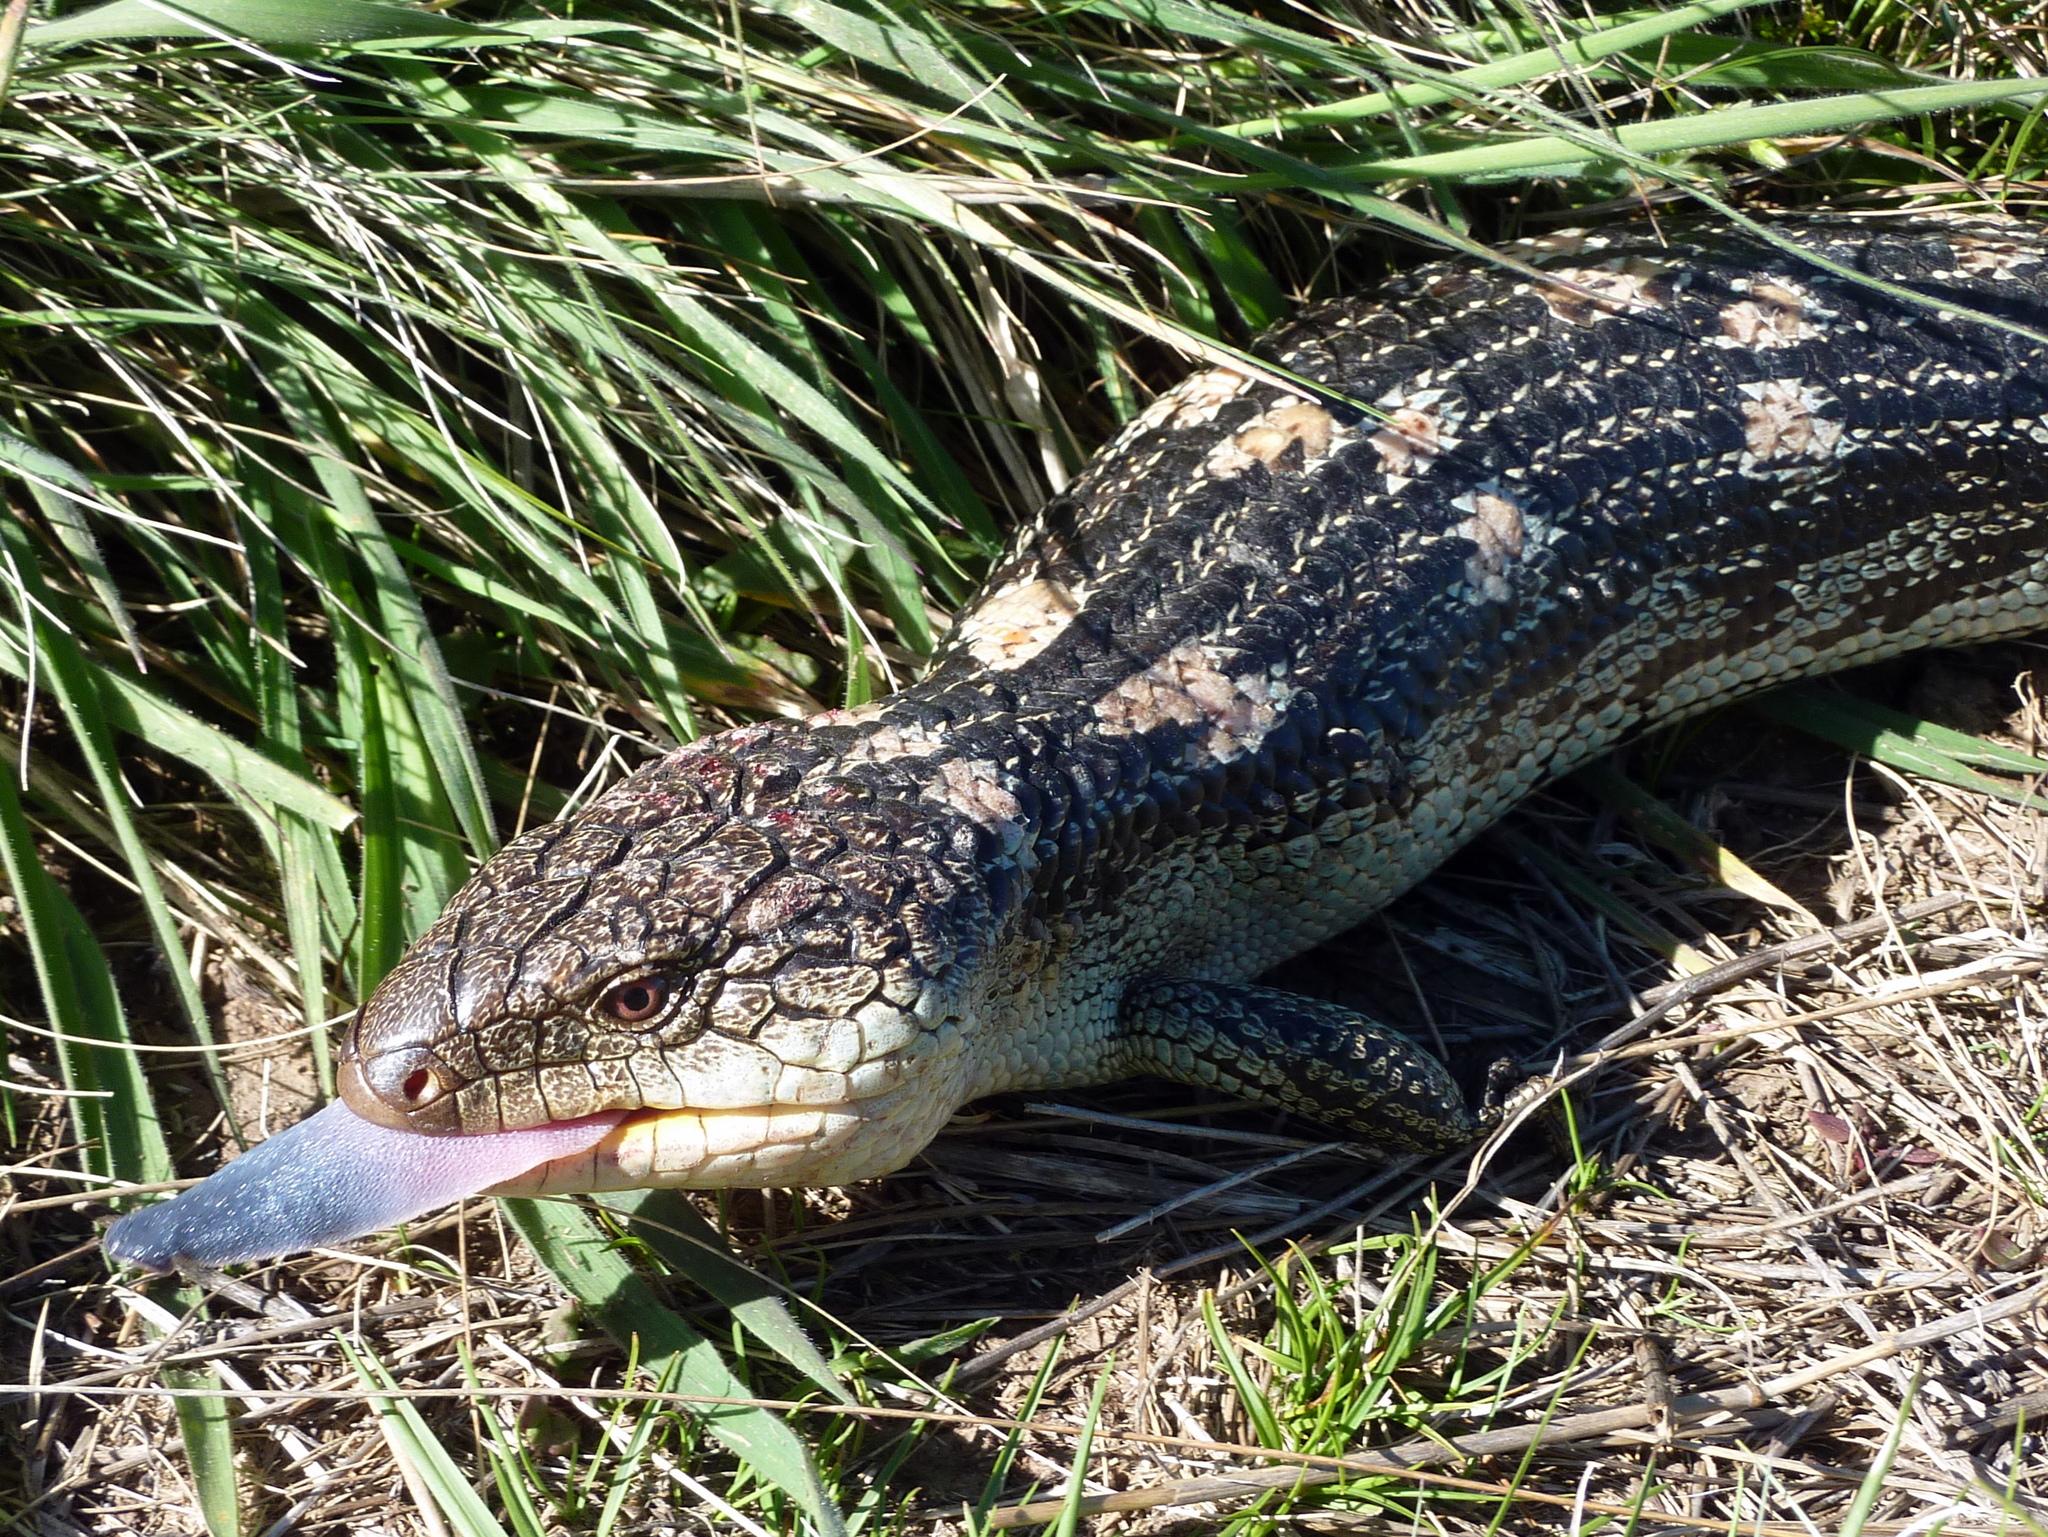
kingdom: Animalia
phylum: Chordata
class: Squamata
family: Scincidae
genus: Tiliqua
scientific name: Tiliqua nigrolutea
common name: Blotched blue-tongued lizard
